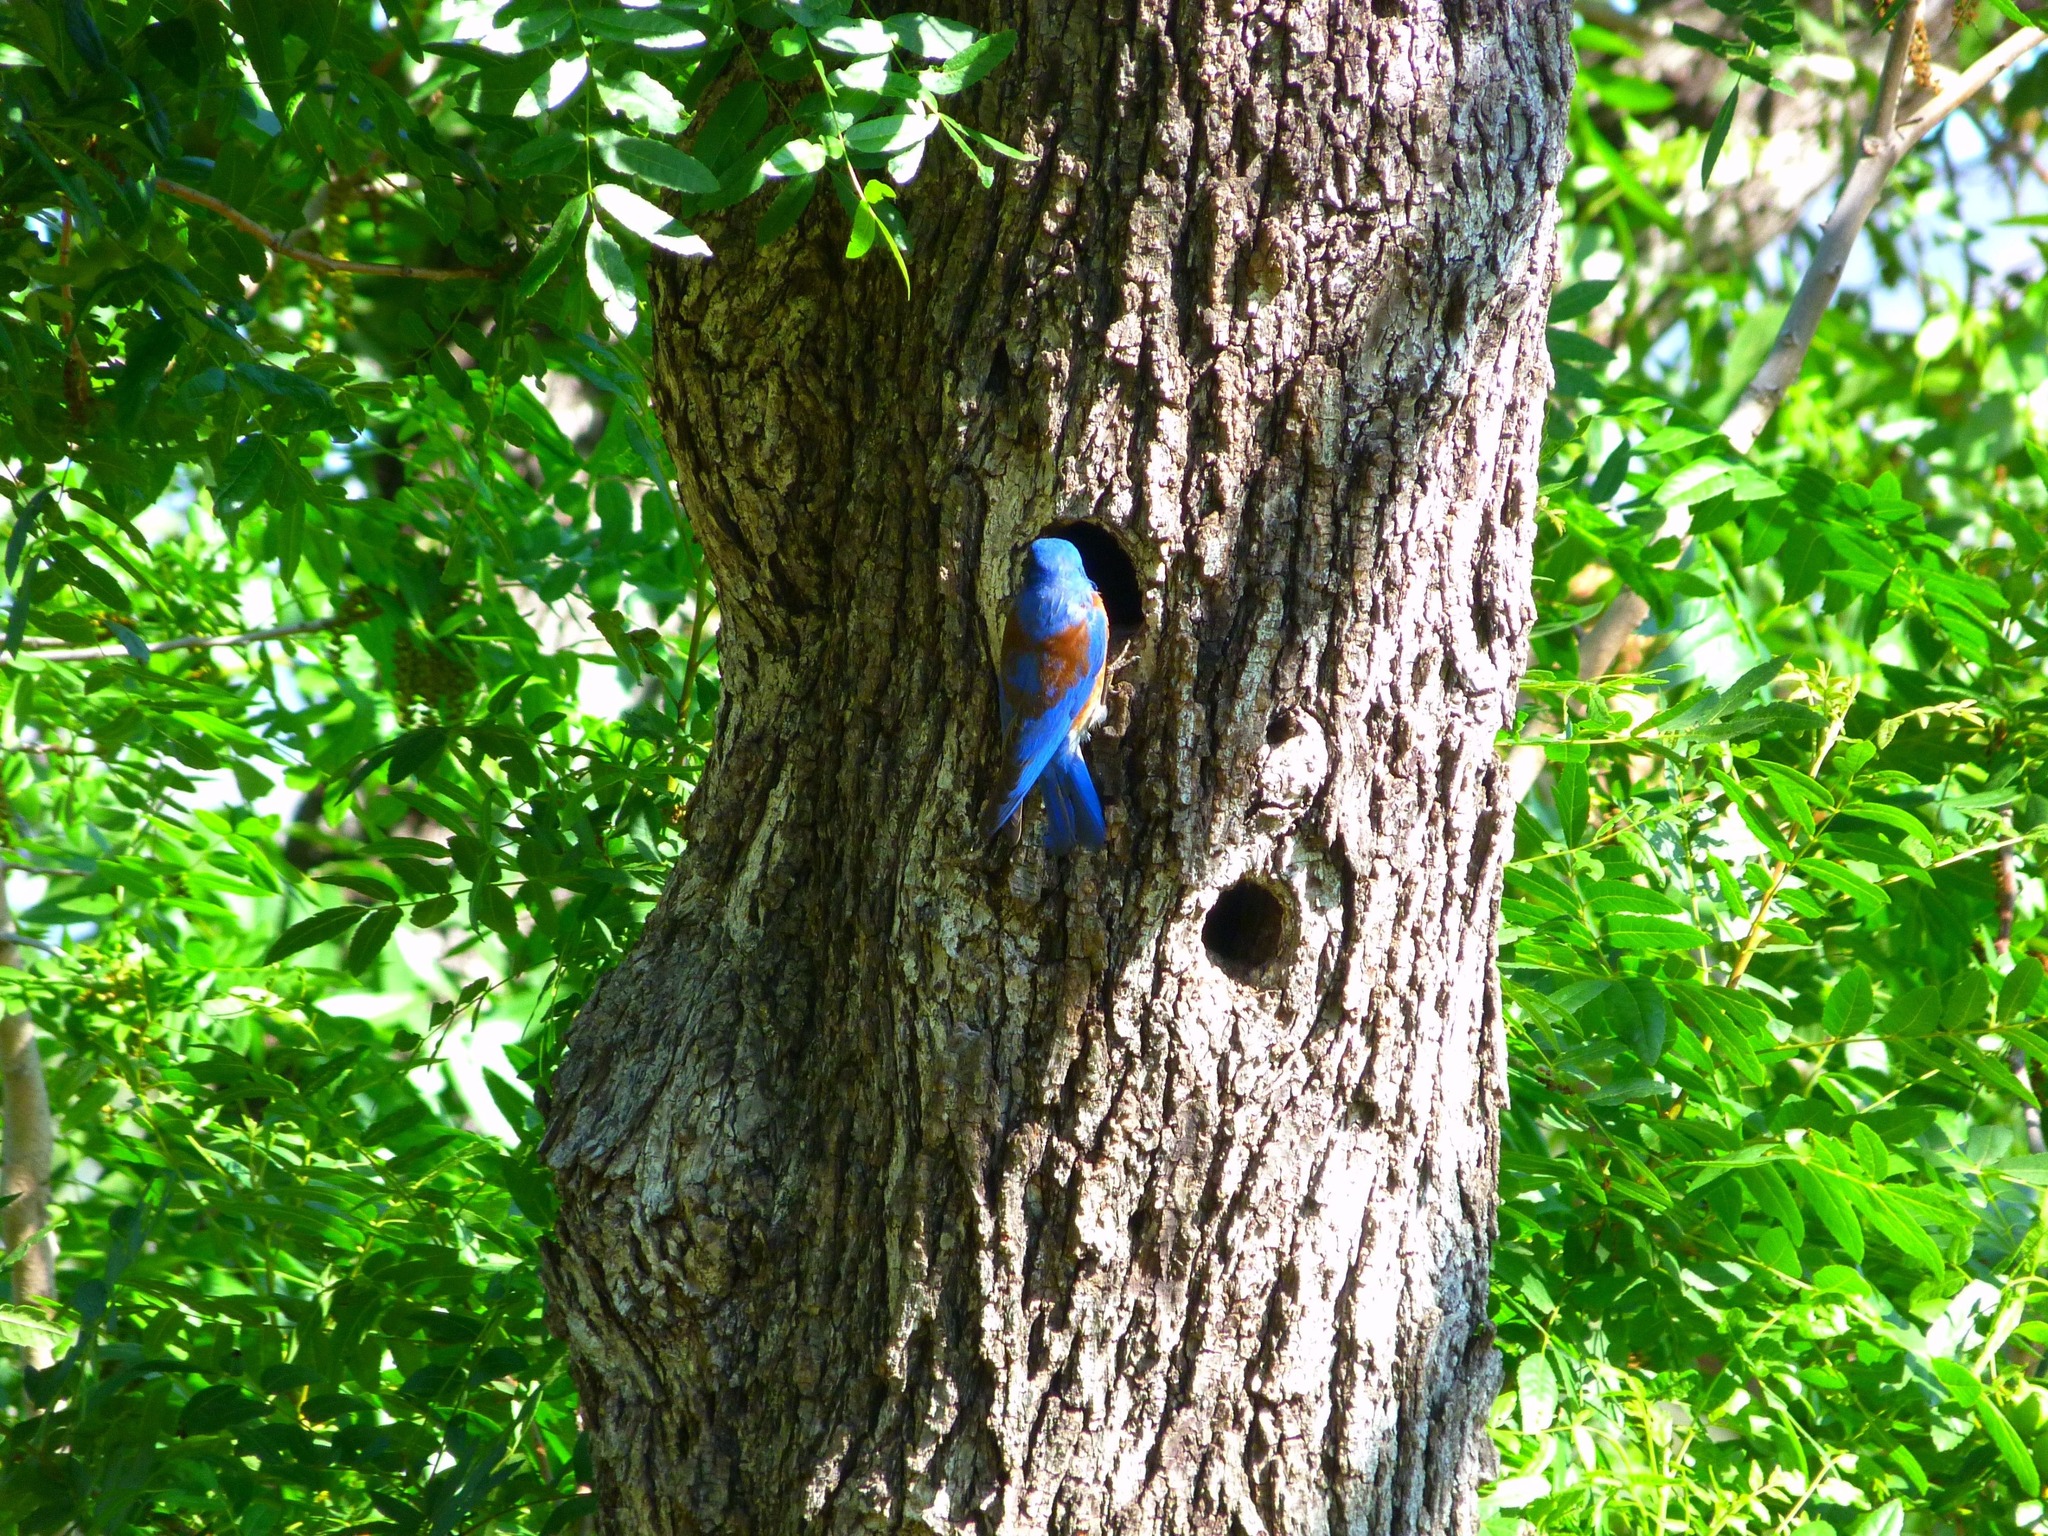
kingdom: Animalia
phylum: Chordata
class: Aves
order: Passeriformes
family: Turdidae
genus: Sialia
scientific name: Sialia mexicana
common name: Western bluebird
